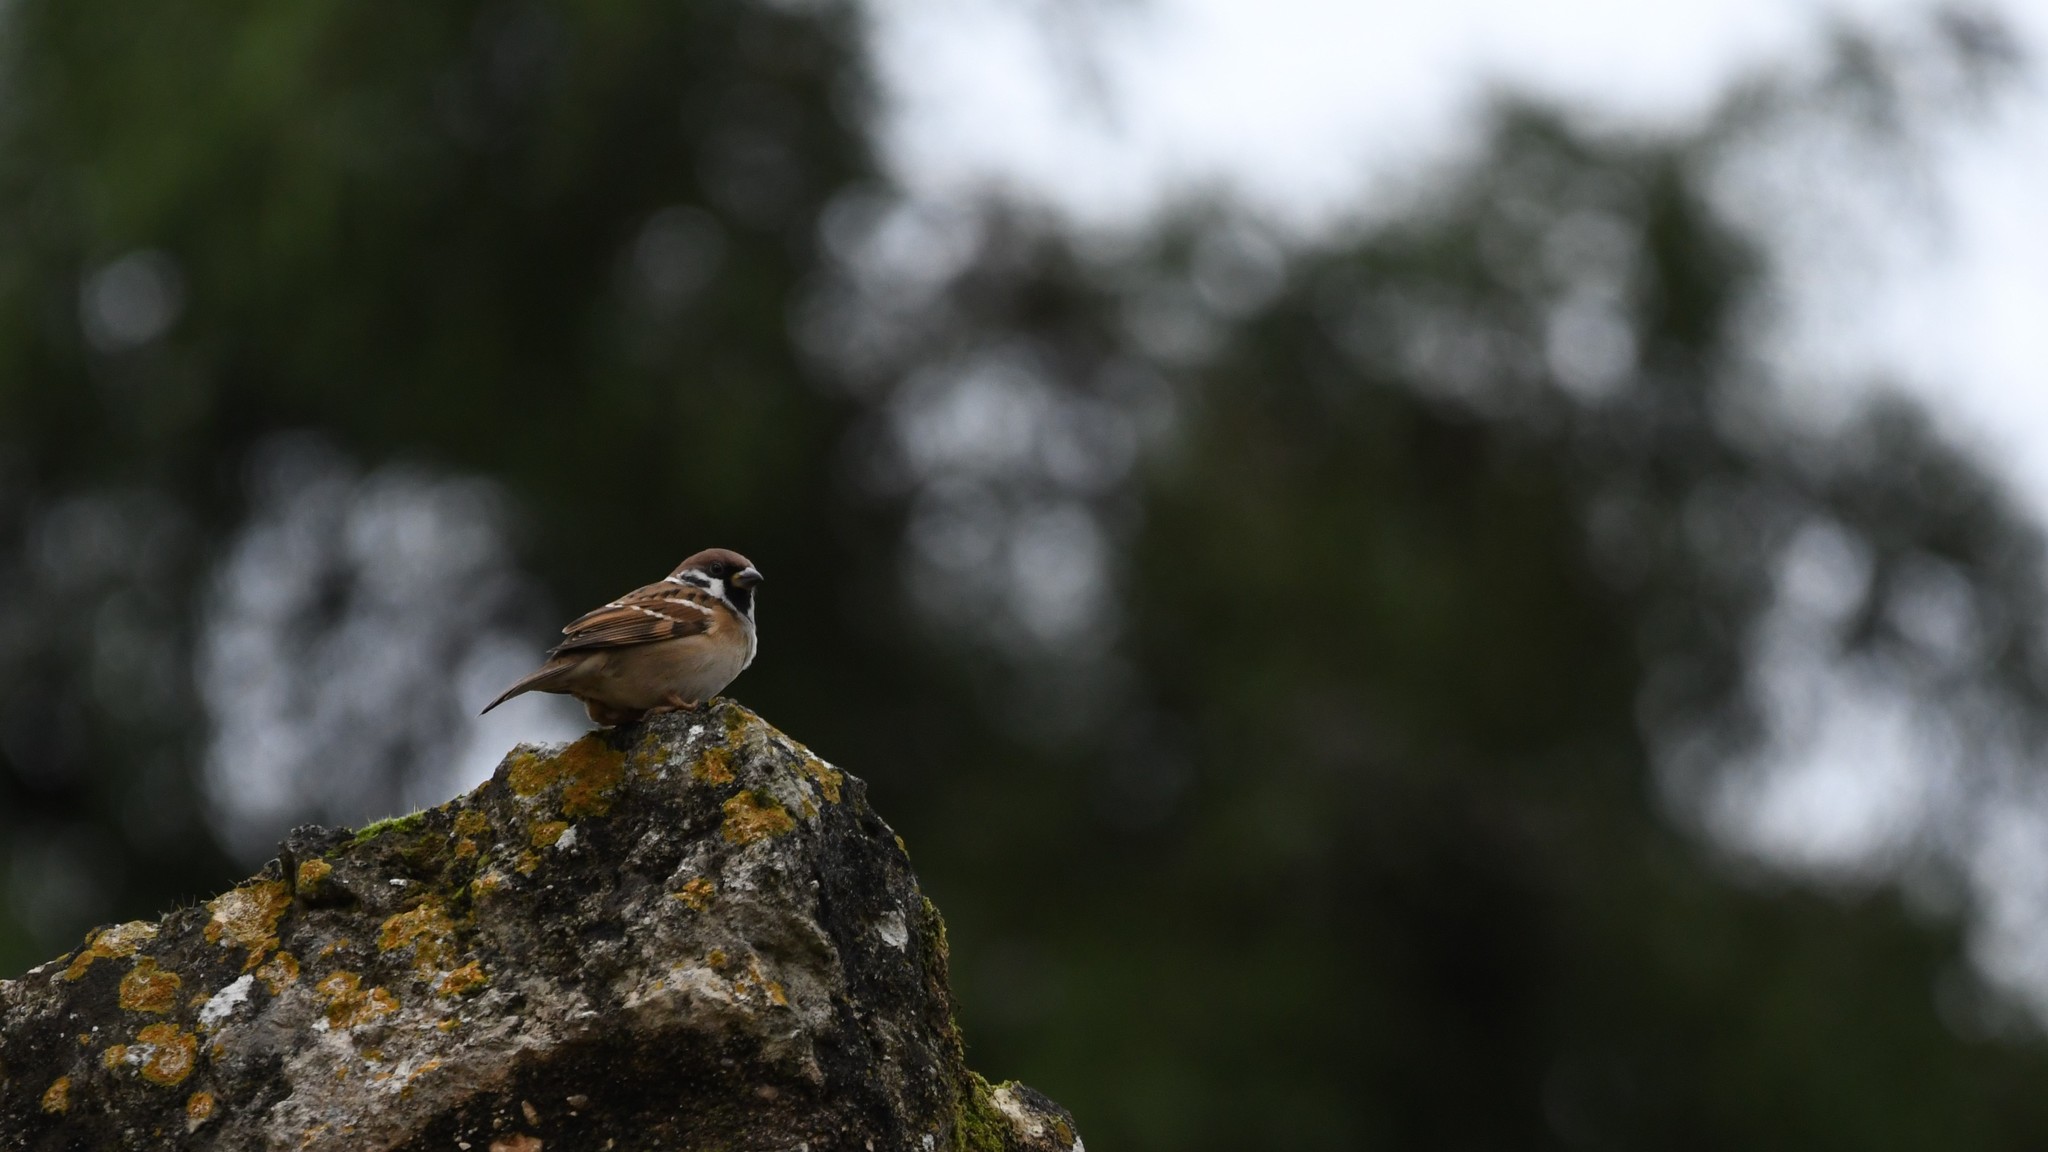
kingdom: Animalia
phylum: Chordata
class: Aves
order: Passeriformes
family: Passeridae
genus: Passer
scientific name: Passer montanus
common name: Eurasian tree sparrow
